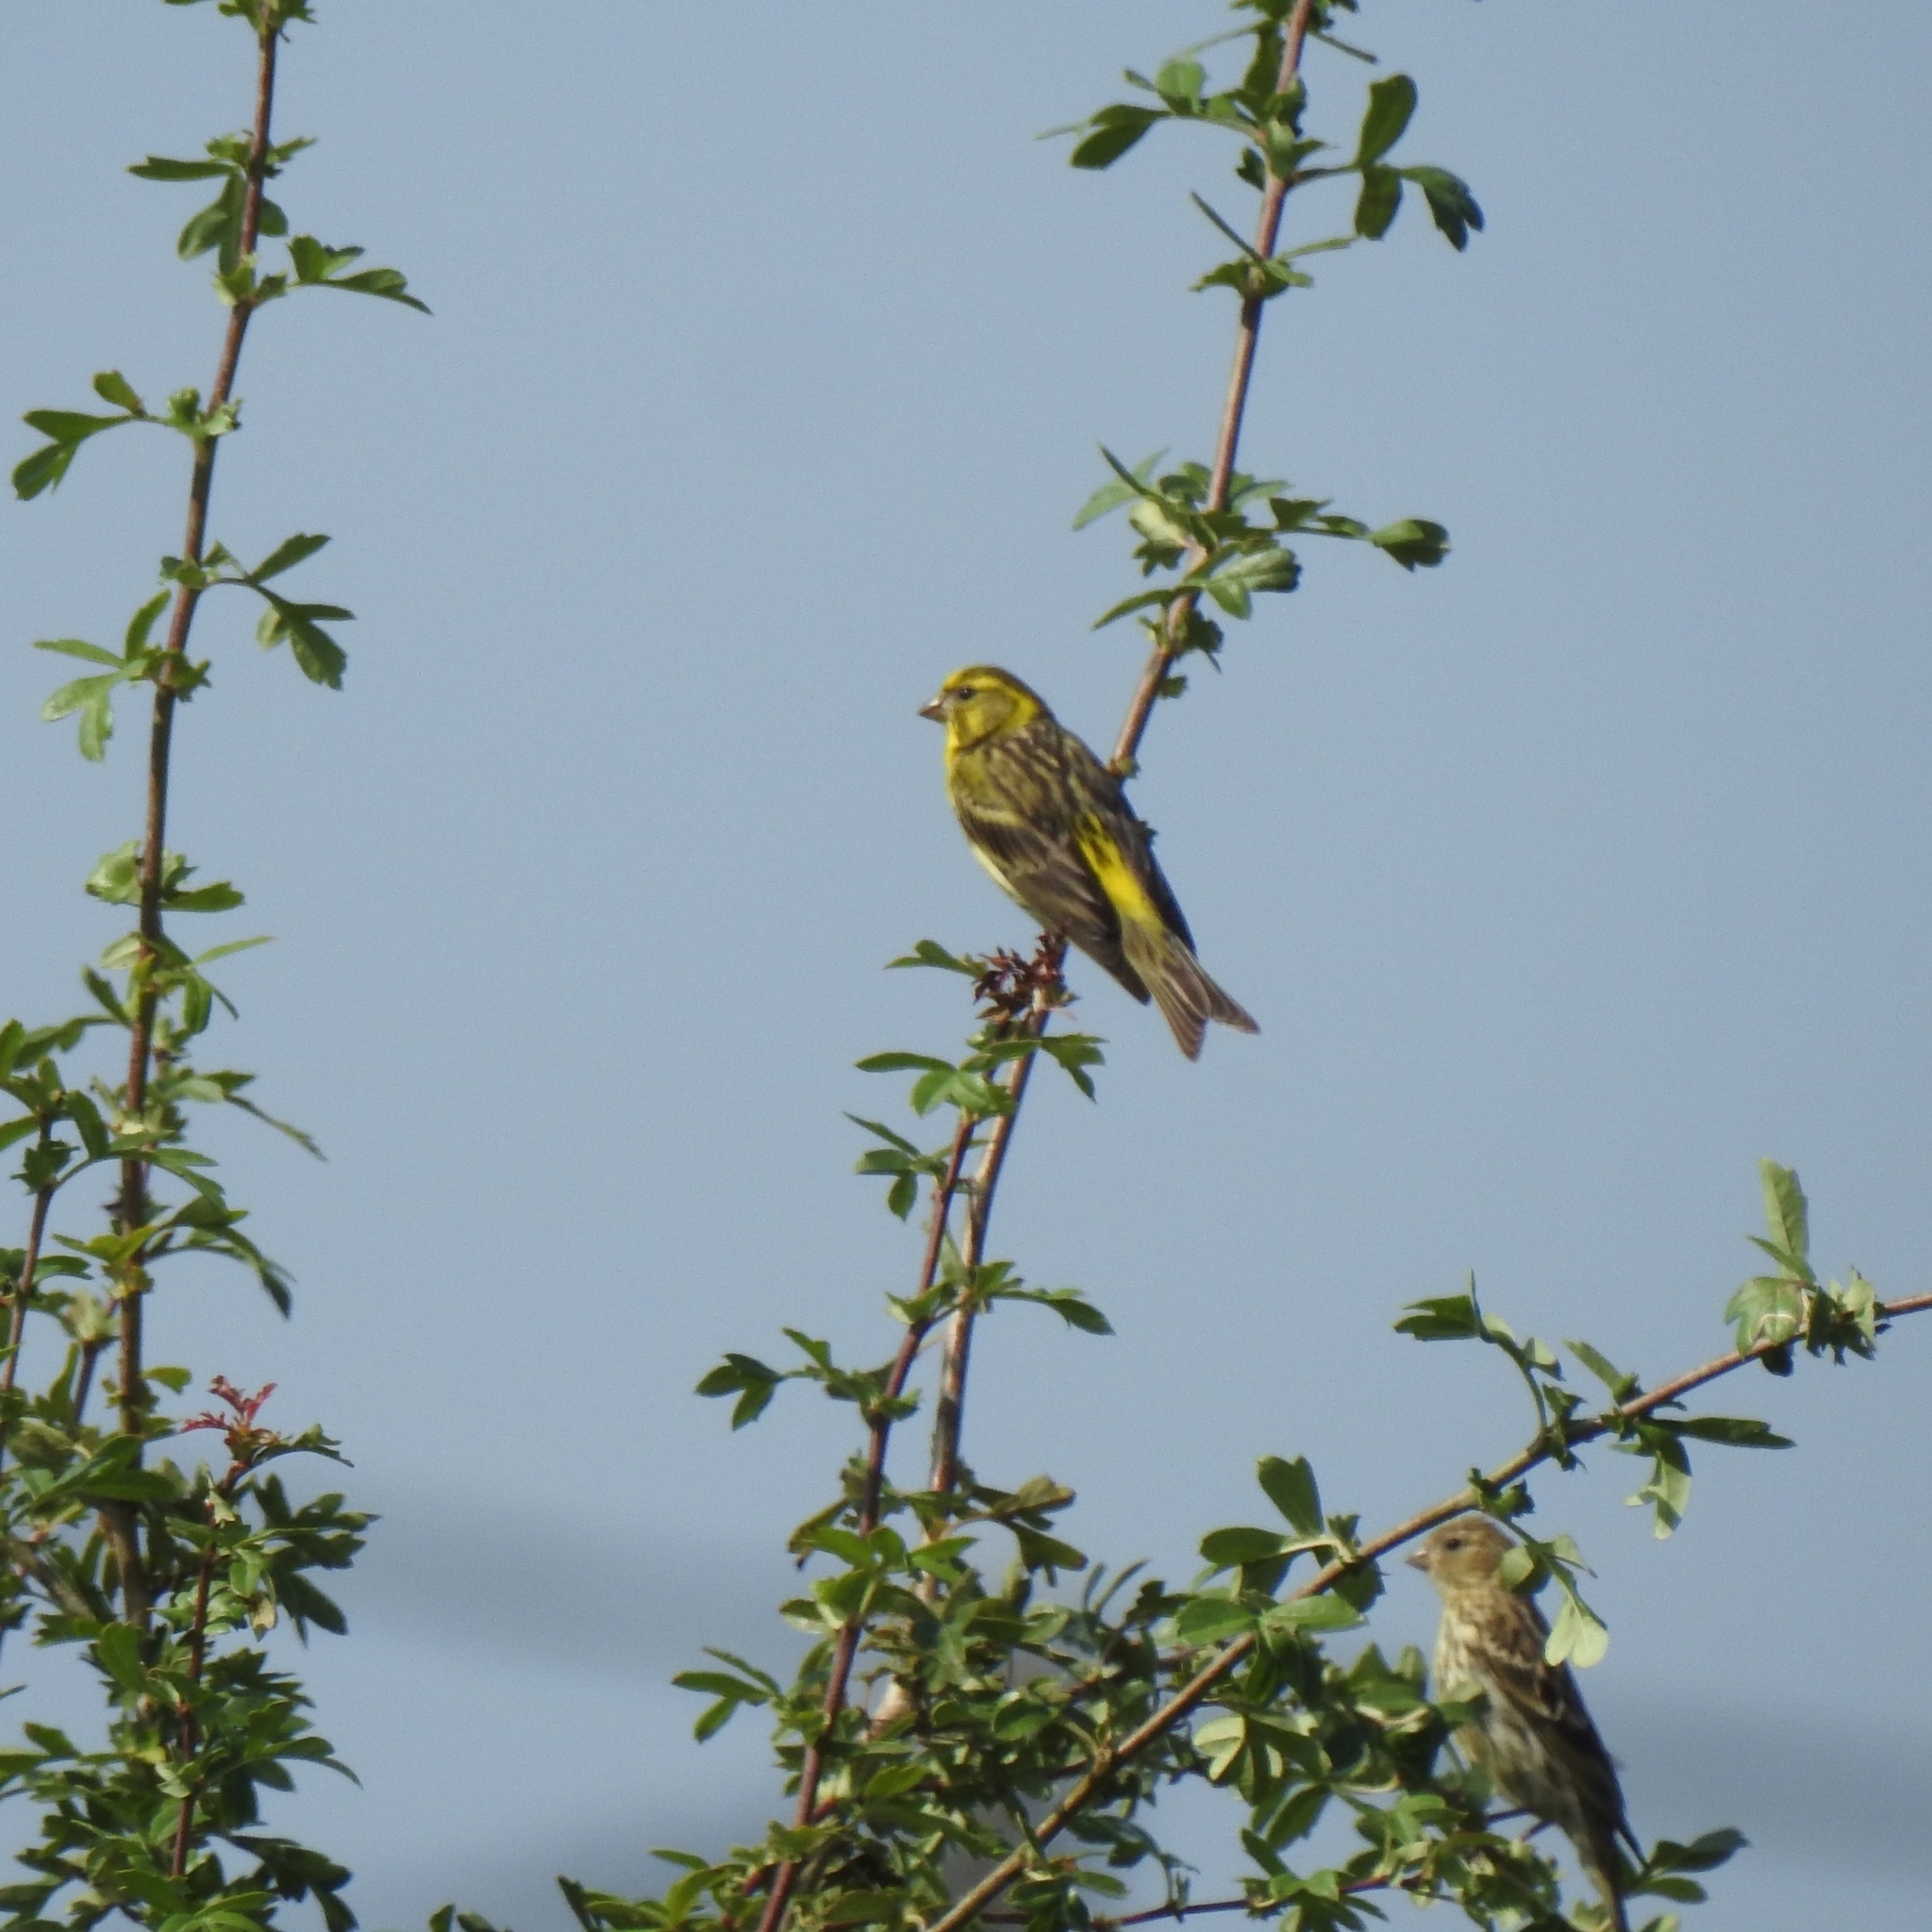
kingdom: Animalia
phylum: Chordata
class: Aves
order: Passeriformes
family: Fringillidae
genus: Serinus
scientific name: Serinus serinus
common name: European serin
